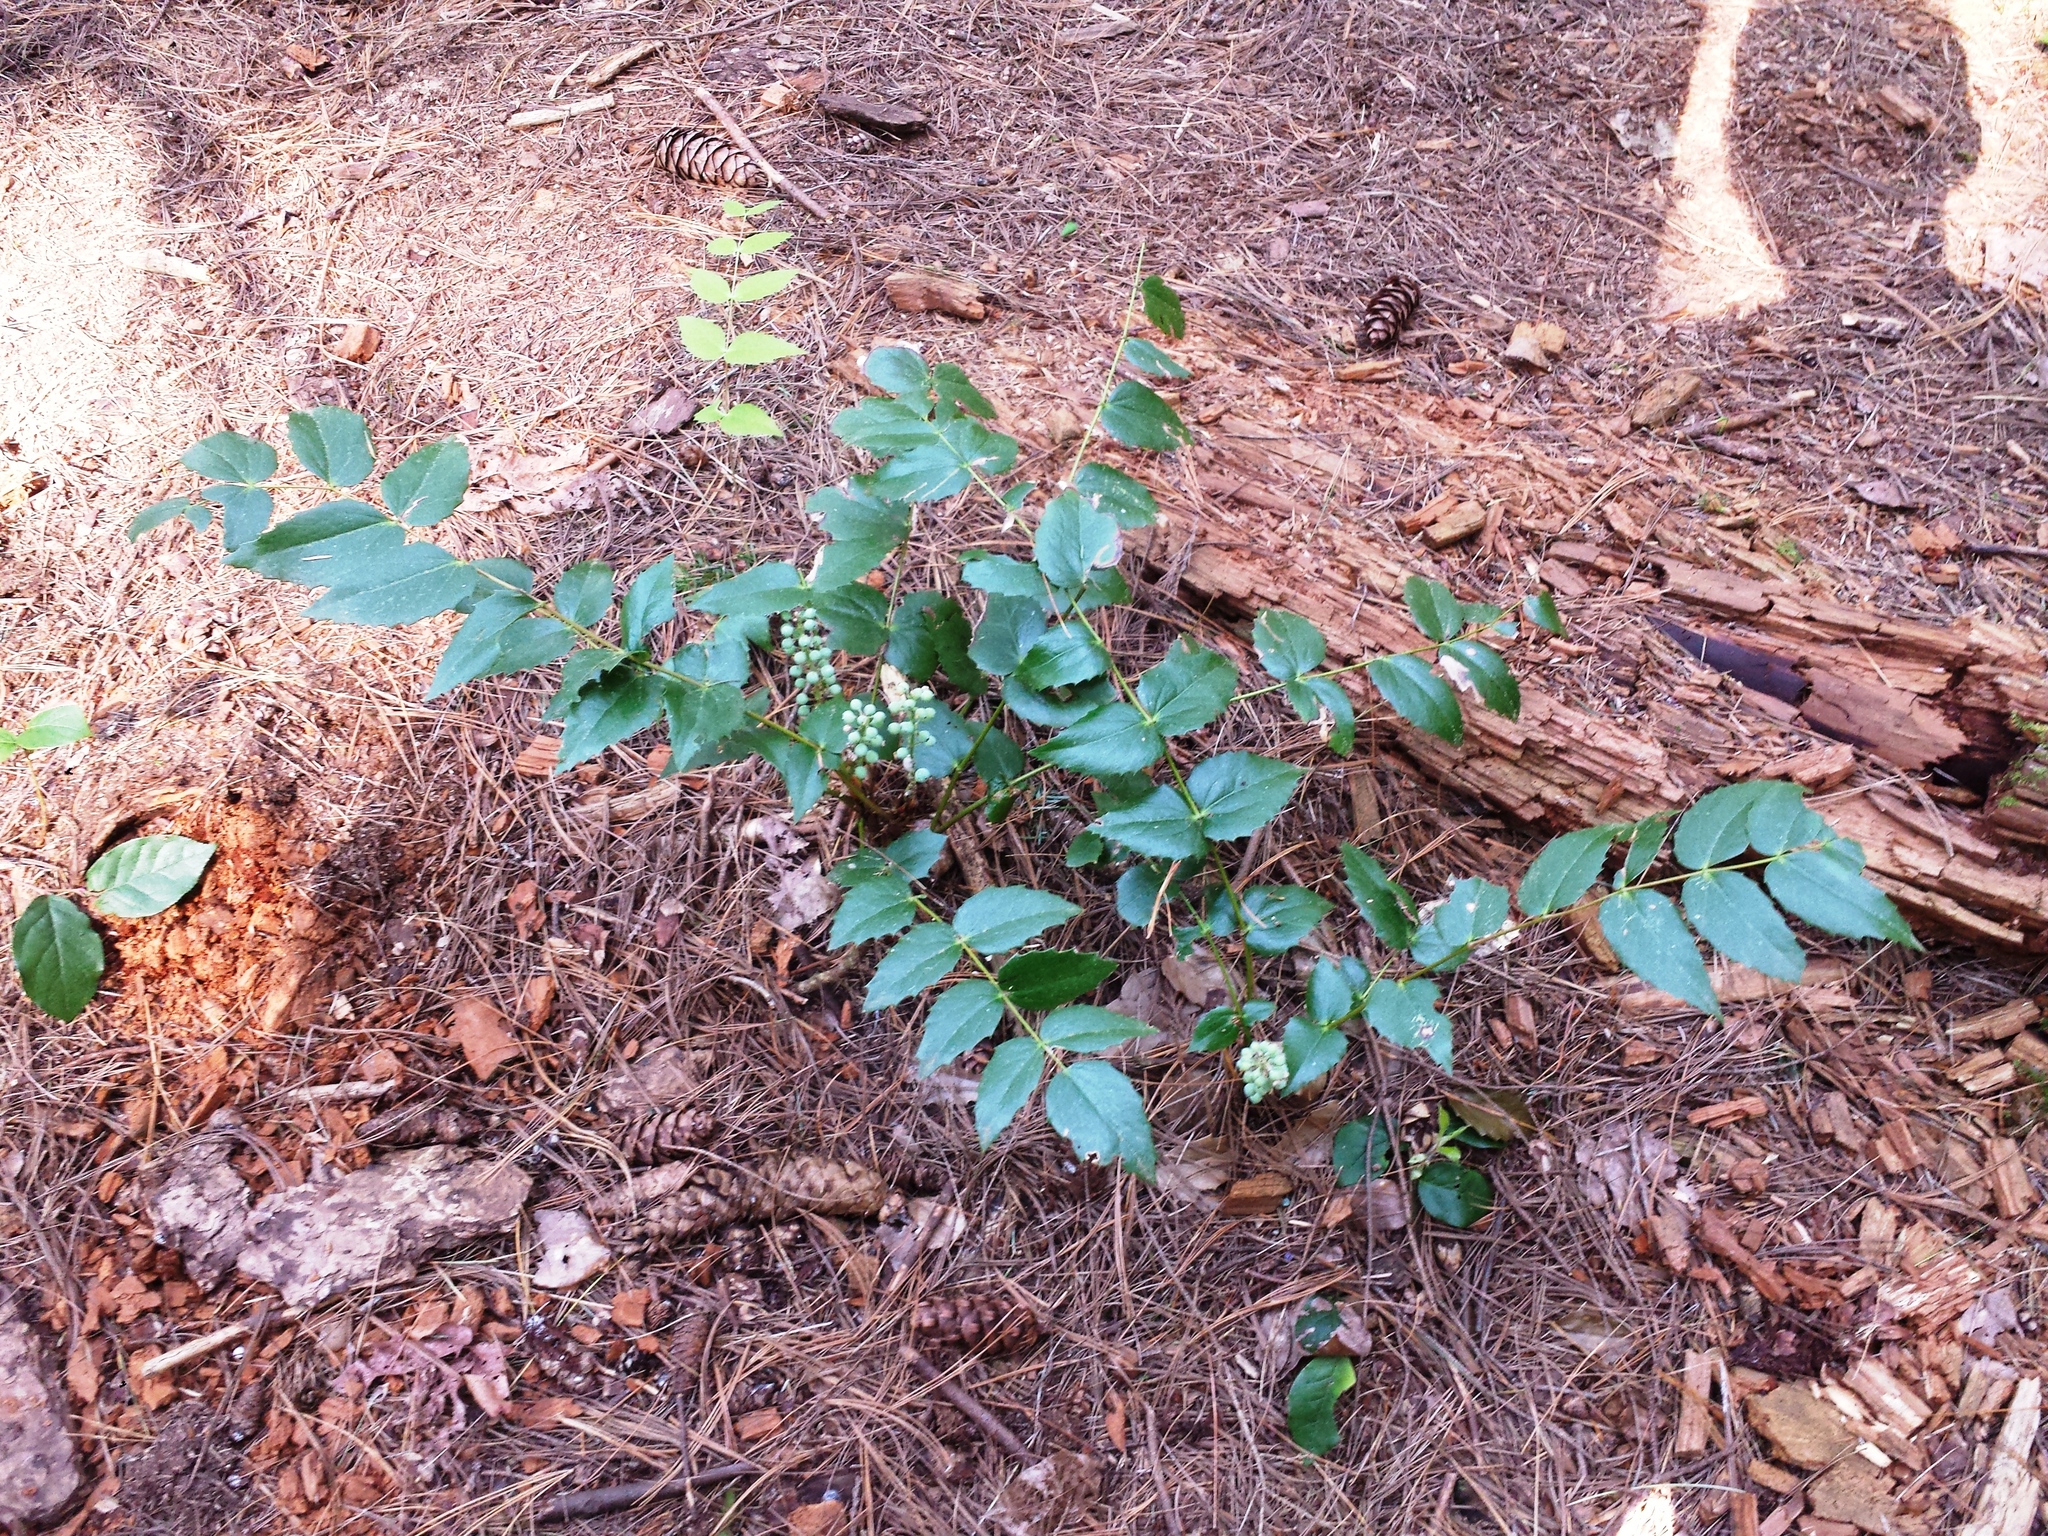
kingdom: Plantae
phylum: Tracheophyta
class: Magnoliopsida
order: Ranunculales
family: Berberidaceae
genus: Mahonia
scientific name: Mahonia nervosa
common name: Cascade oregon-grape
